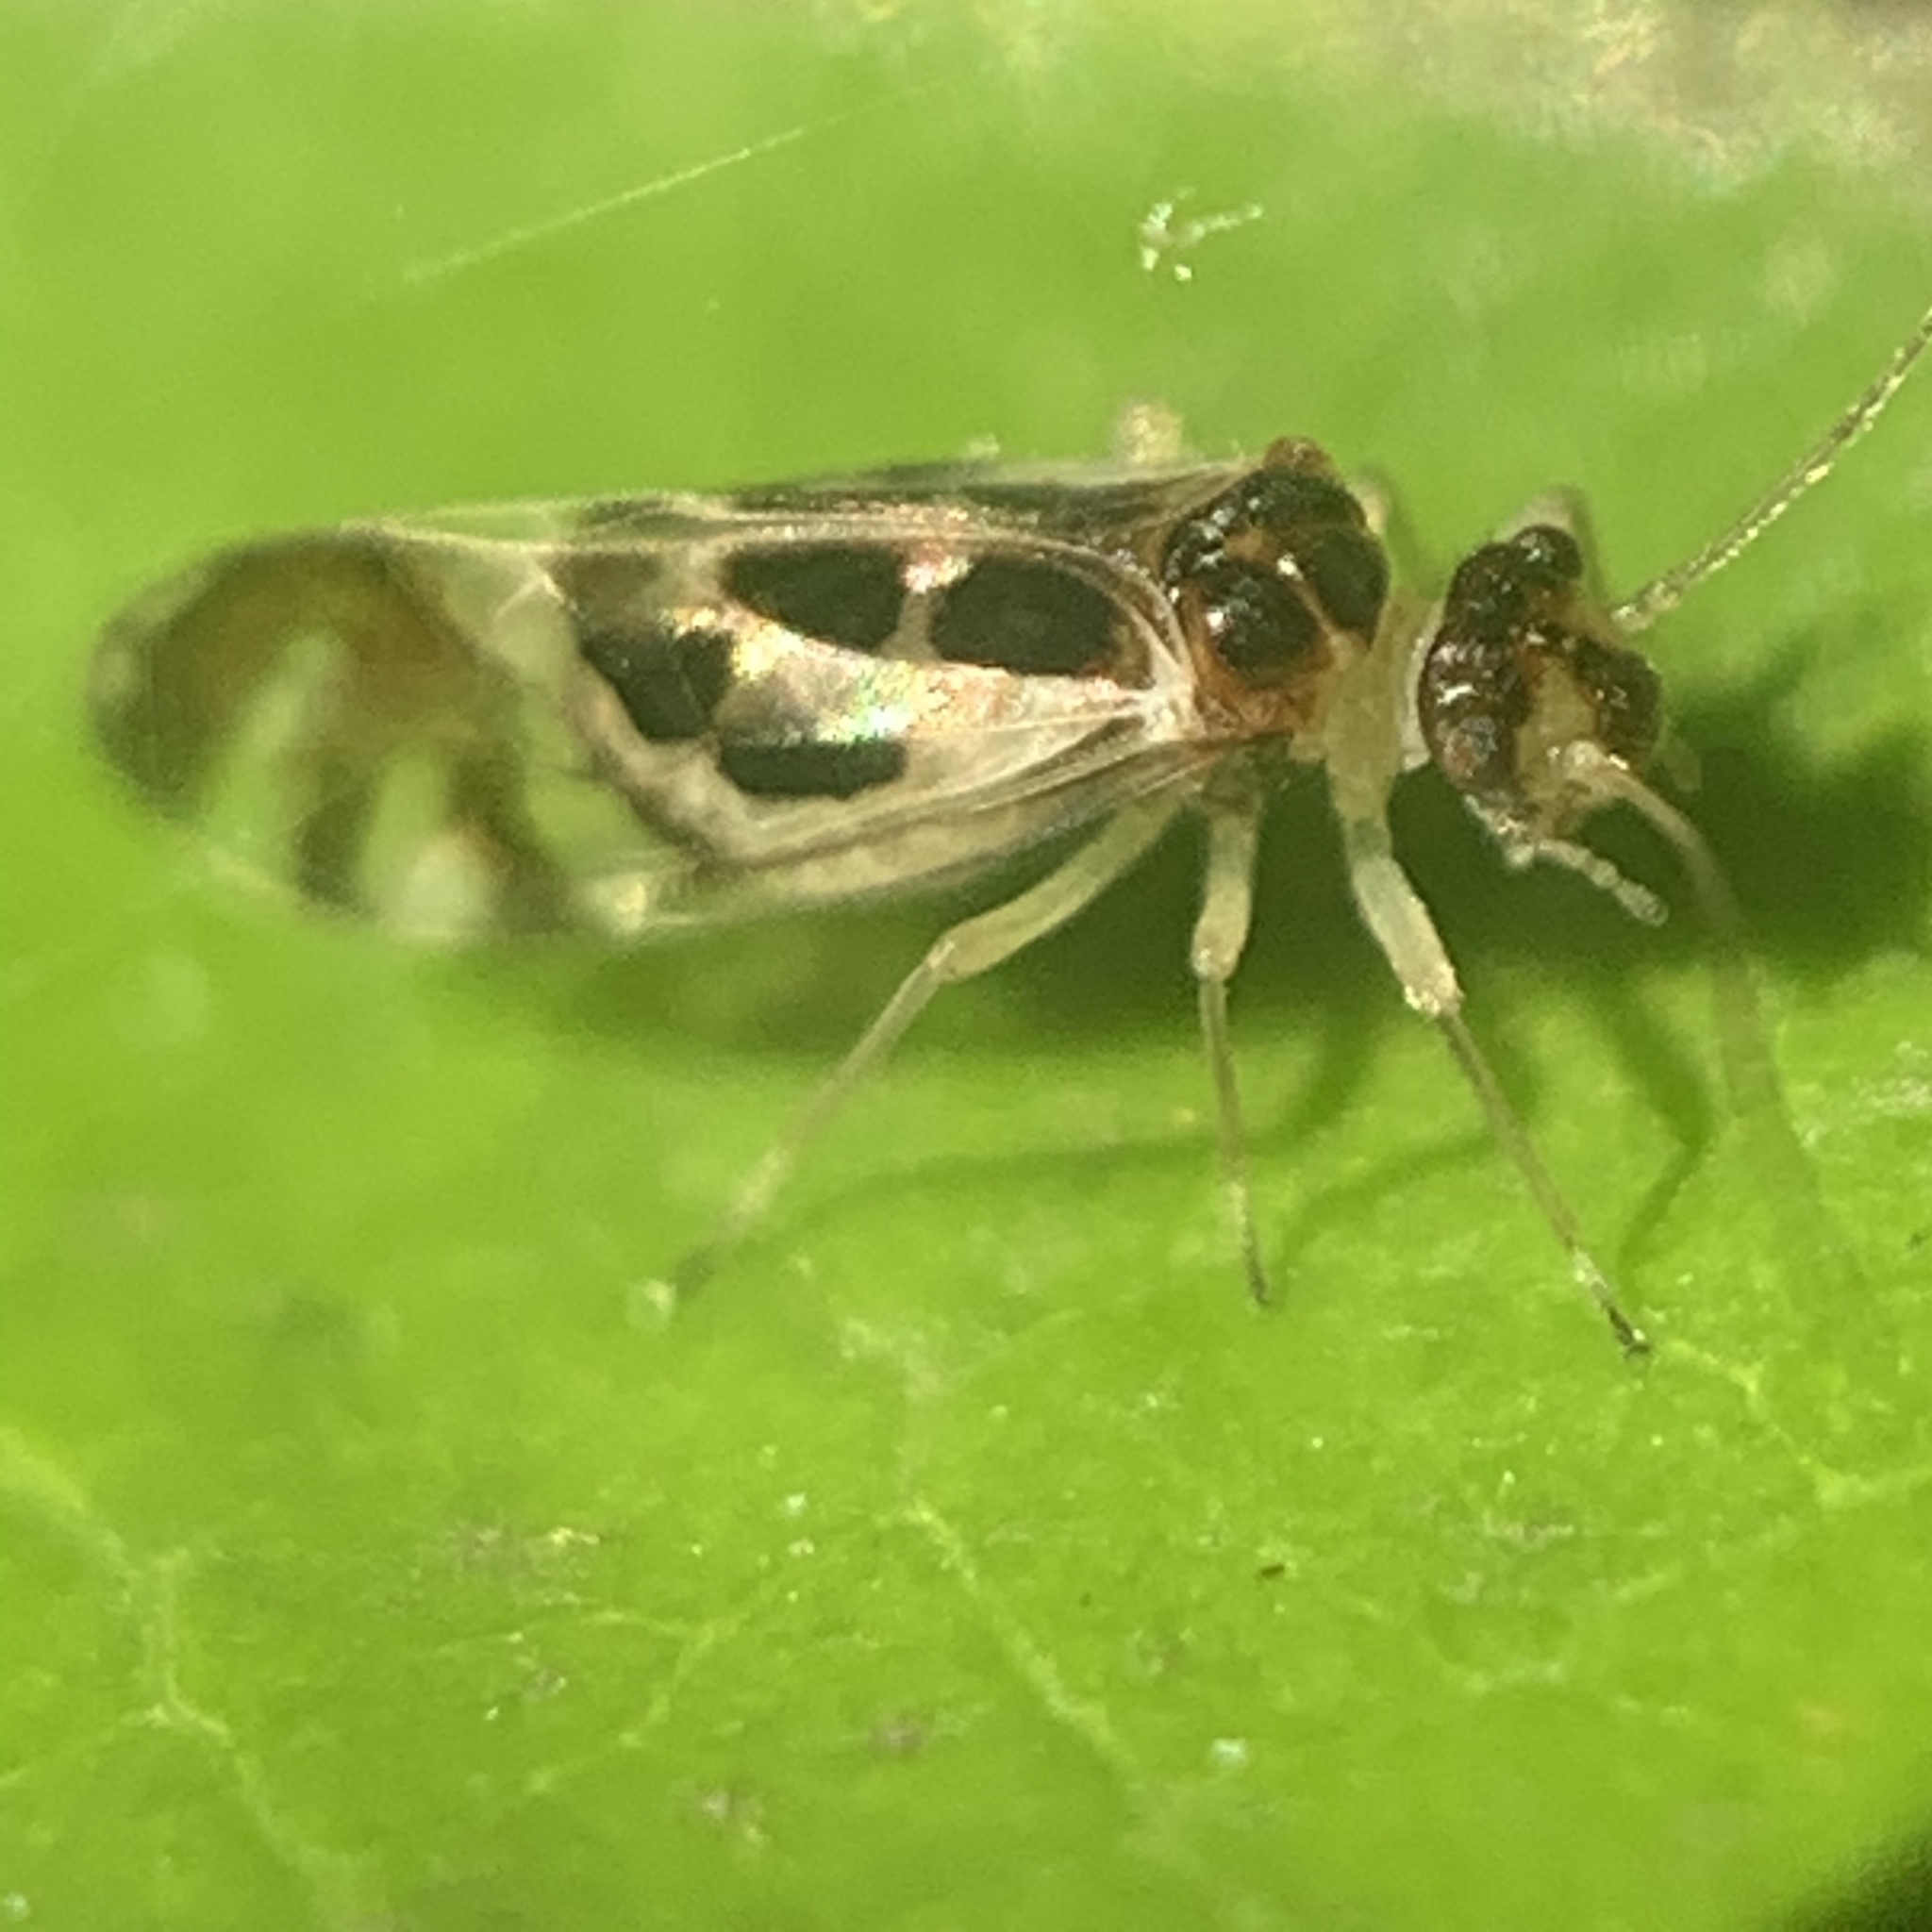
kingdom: Animalia
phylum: Arthropoda
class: Insecta
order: Psocodea
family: Stenopsocidae
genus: Graphopsocus
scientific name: Graphopsocus cruciatus
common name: Lizard bark louse
